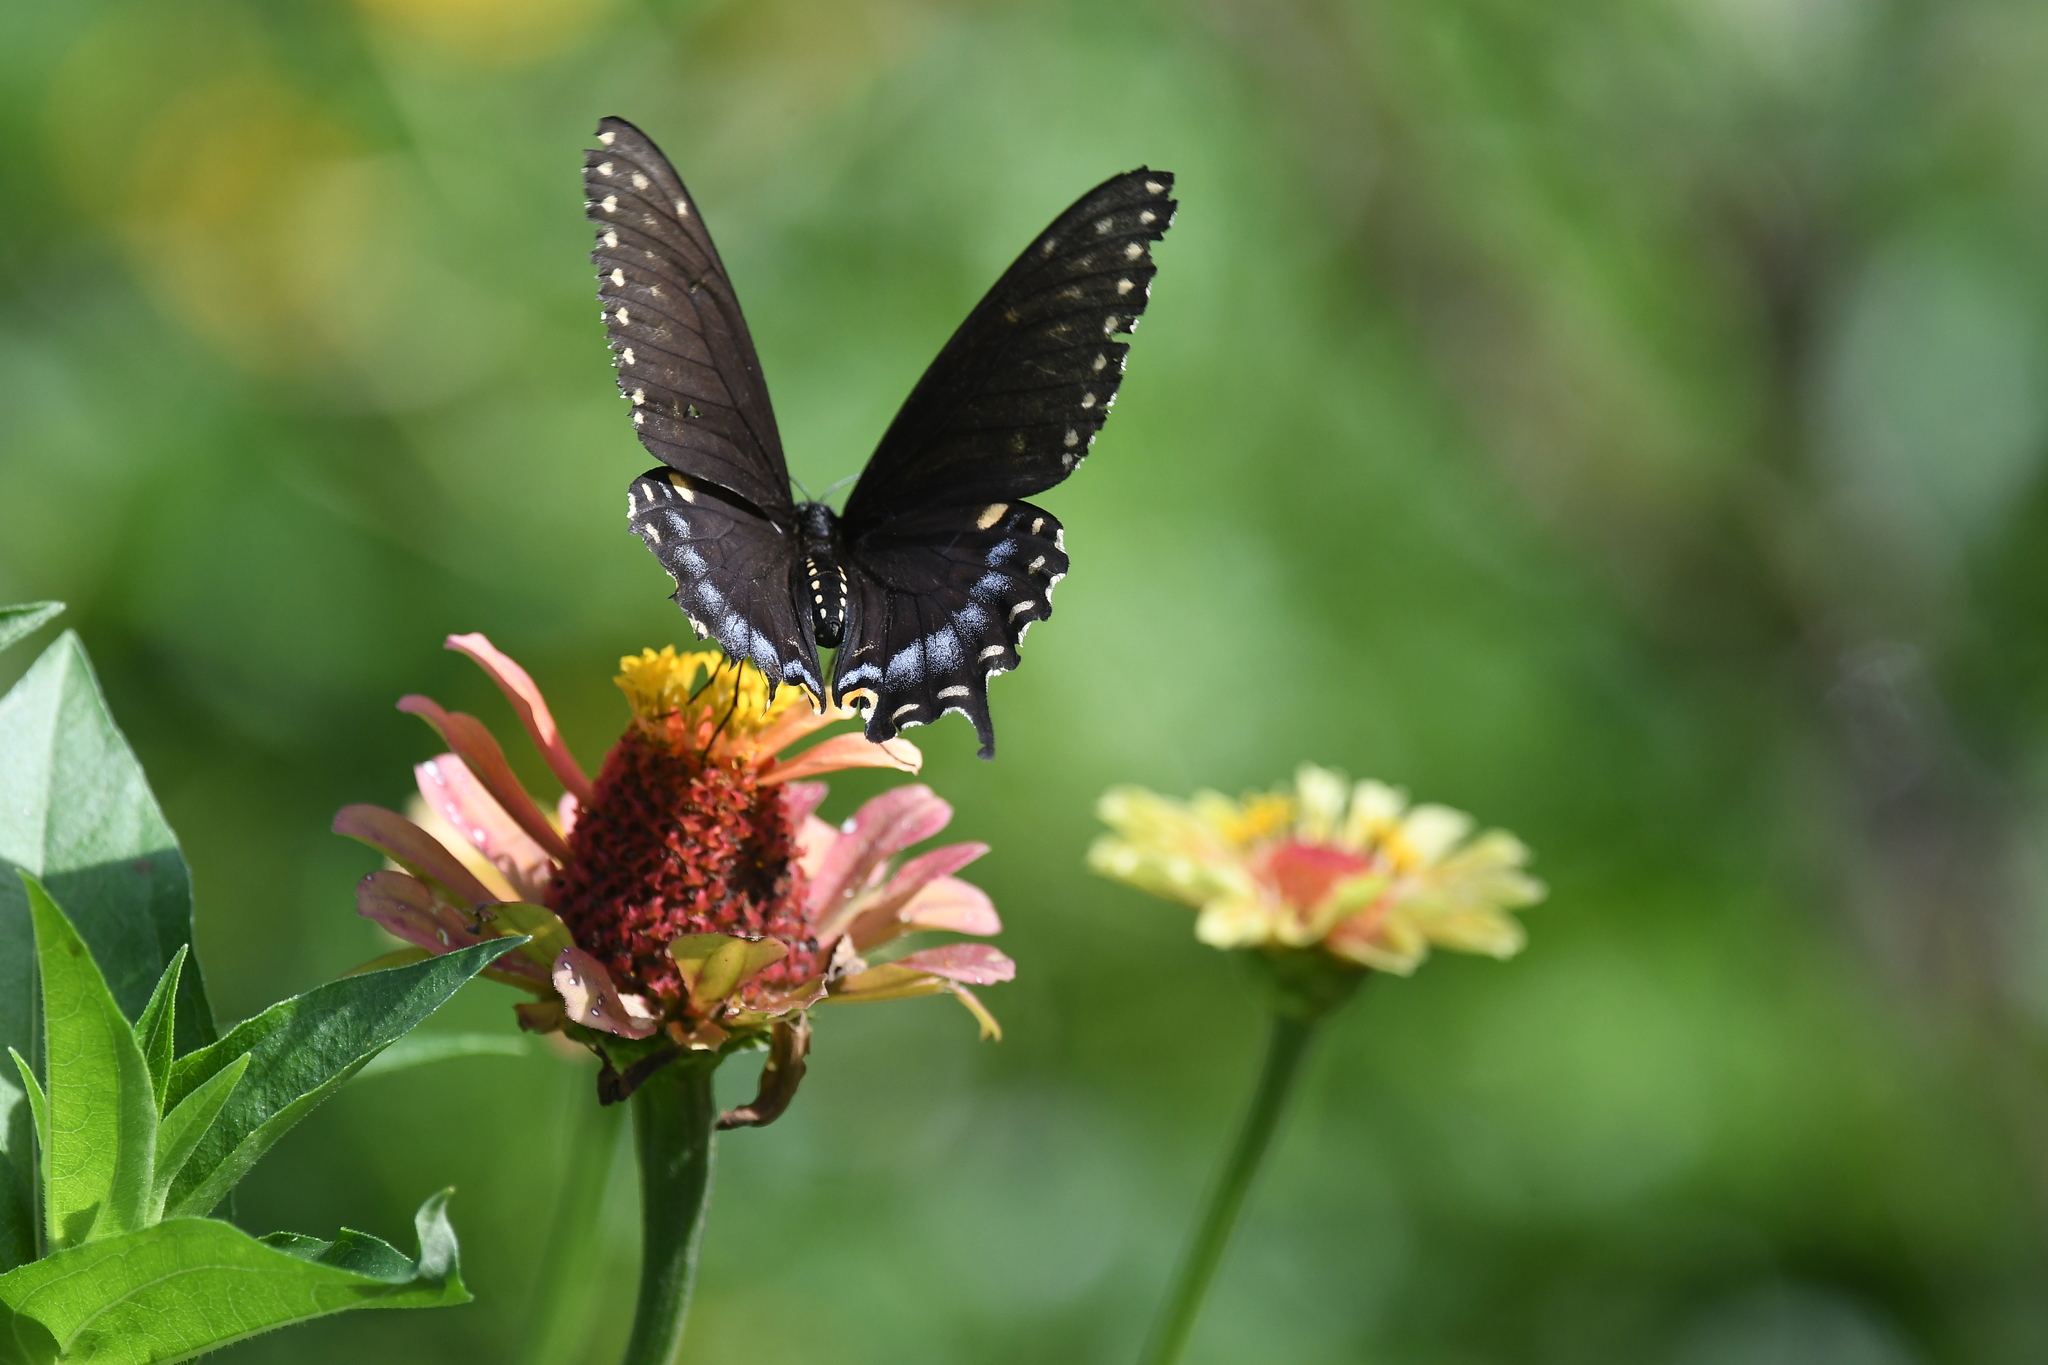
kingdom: Animalia
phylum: Arthropoda
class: Insecta
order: Lepidoptera
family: Papilionidae
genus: Papilio
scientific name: Papilio polyxenes
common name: Black swallowtail
